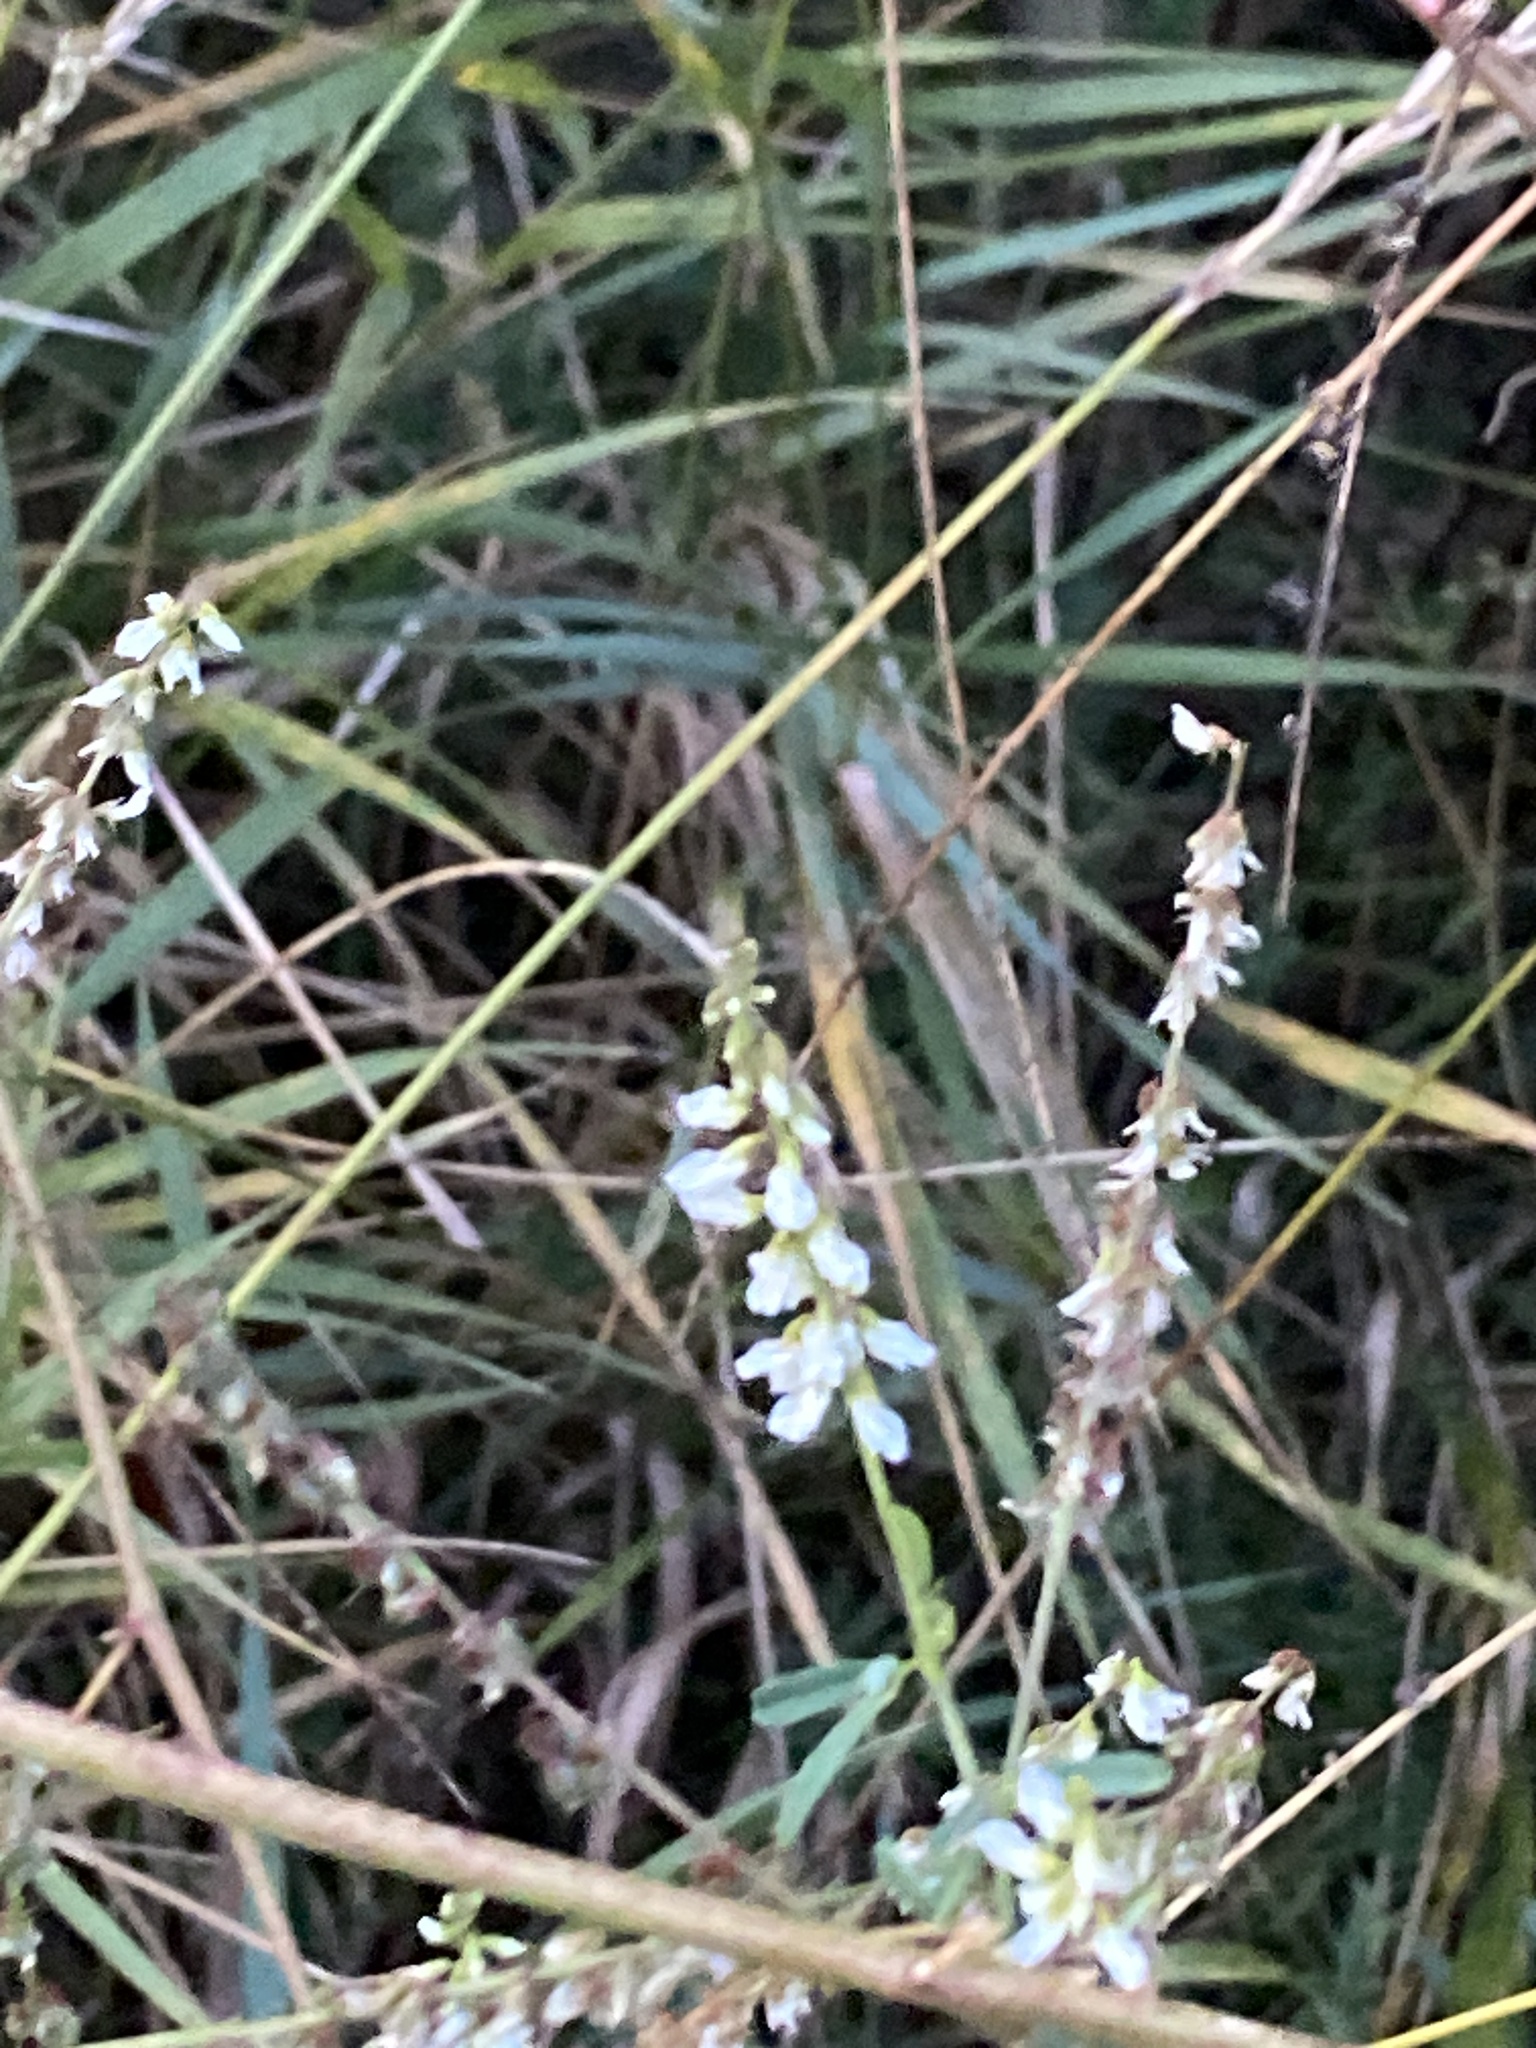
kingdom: Plantae
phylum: Tracheophyta
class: Magnoliopsida
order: Fabales
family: Fabaceae
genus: Melilotus
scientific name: Melilotus albus
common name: White melilot
